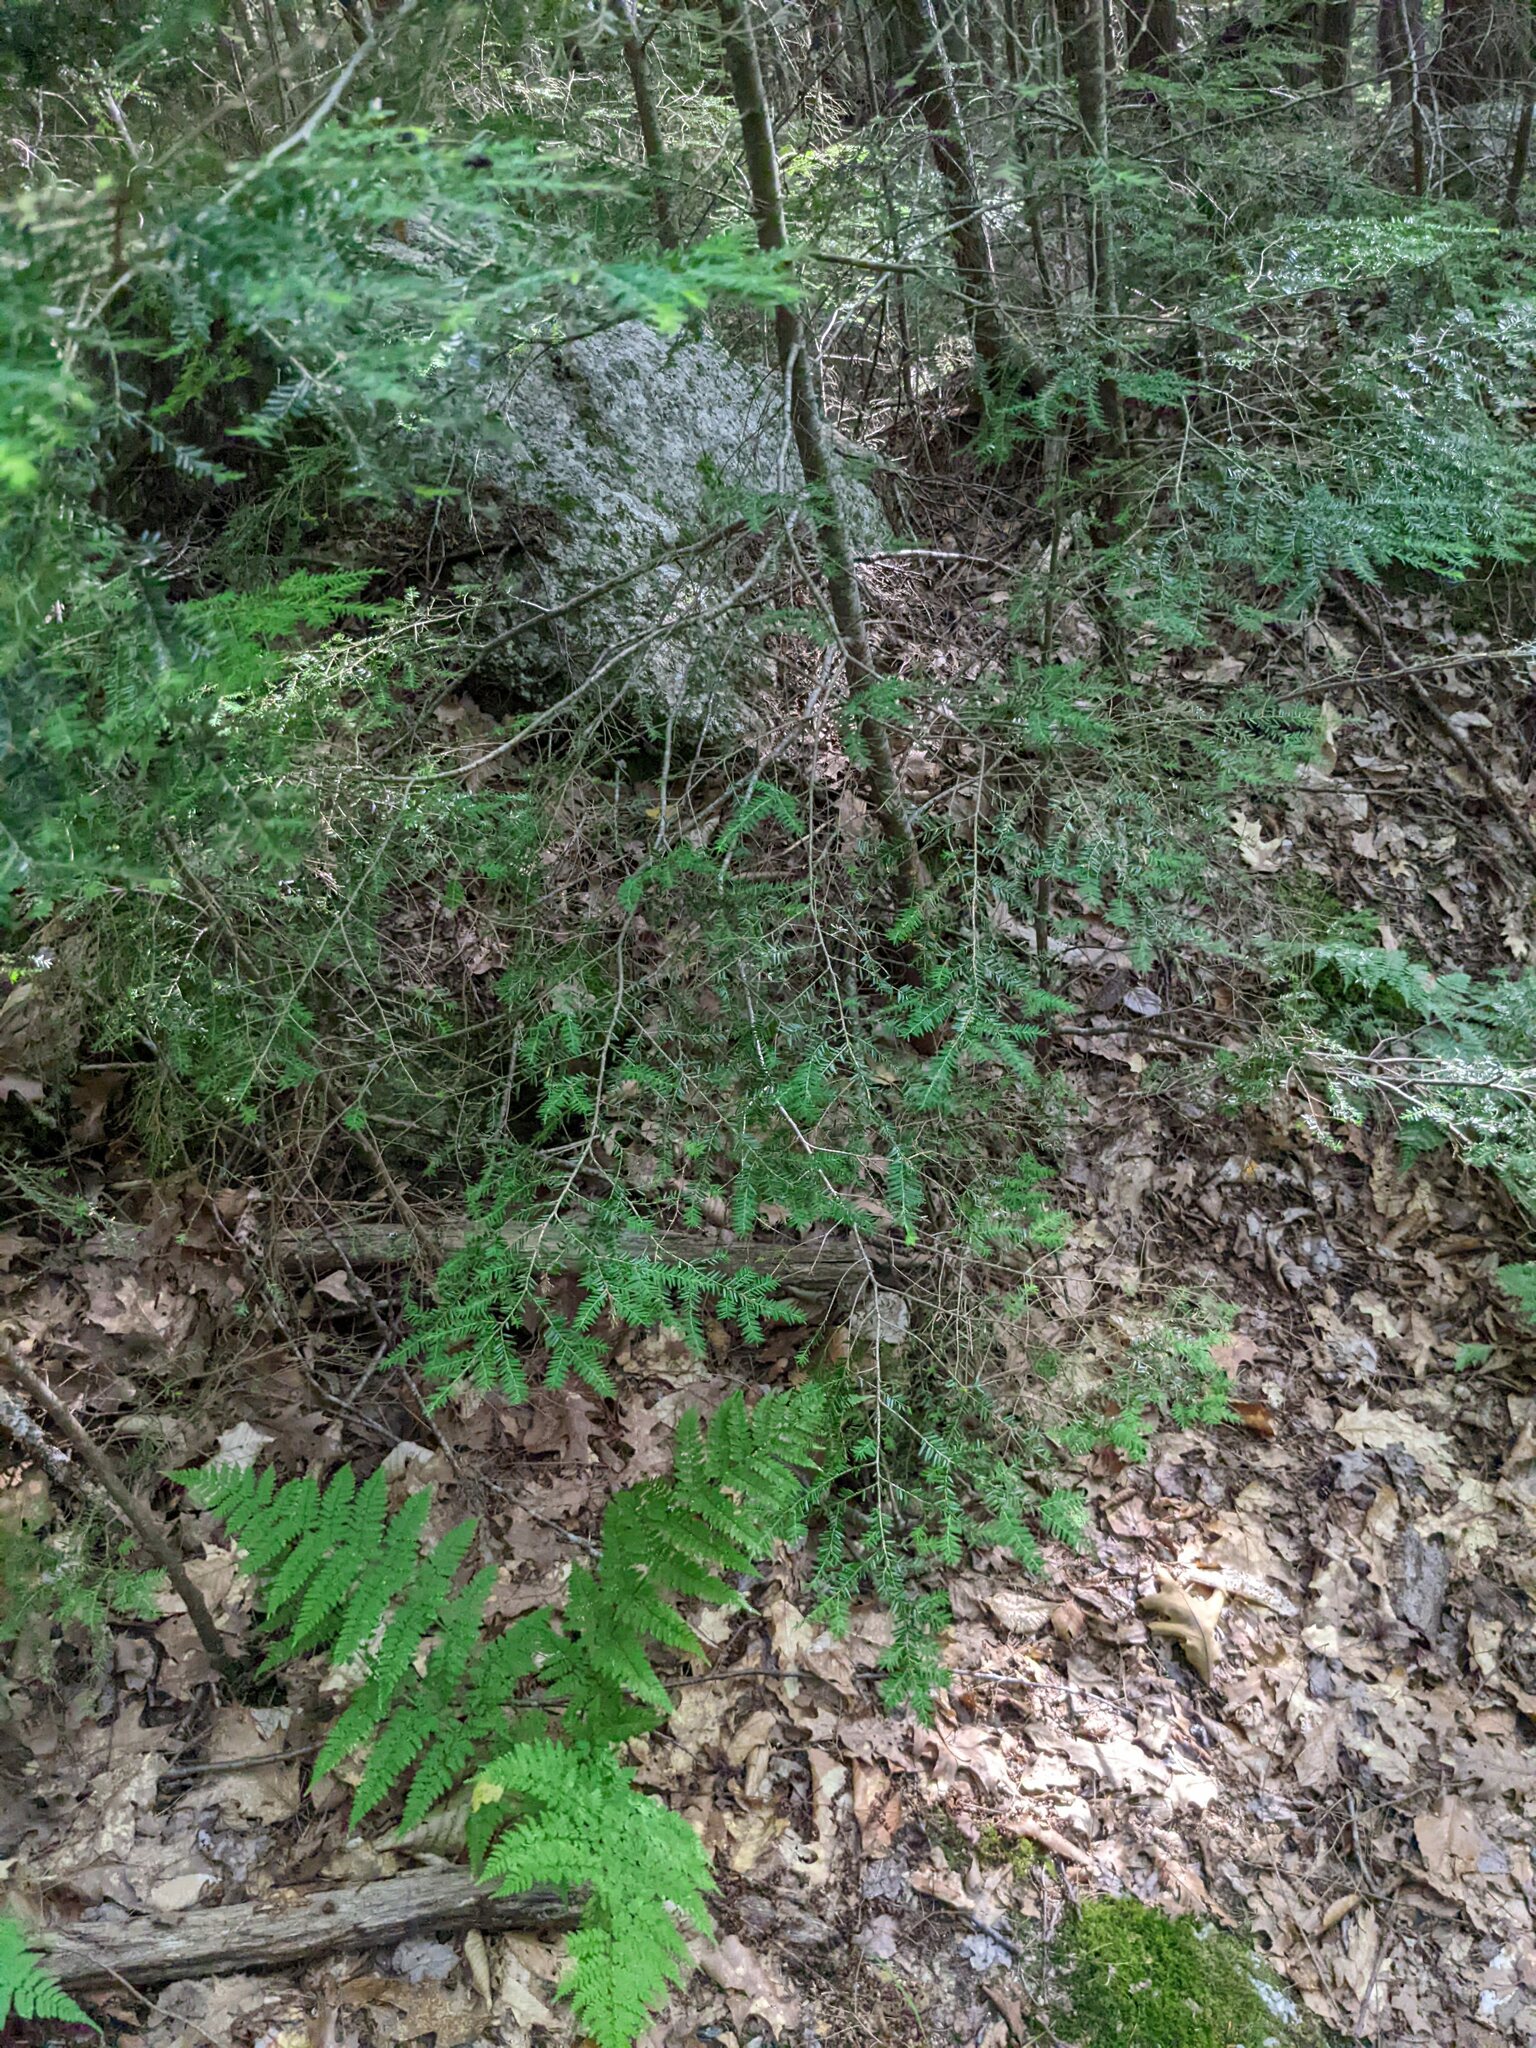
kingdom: Plantae
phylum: Tracheophyta
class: Pinopsida
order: Pinales
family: Pinaceae
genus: Tsuga
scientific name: Tsuga canadensis
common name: Eastern hemlock
